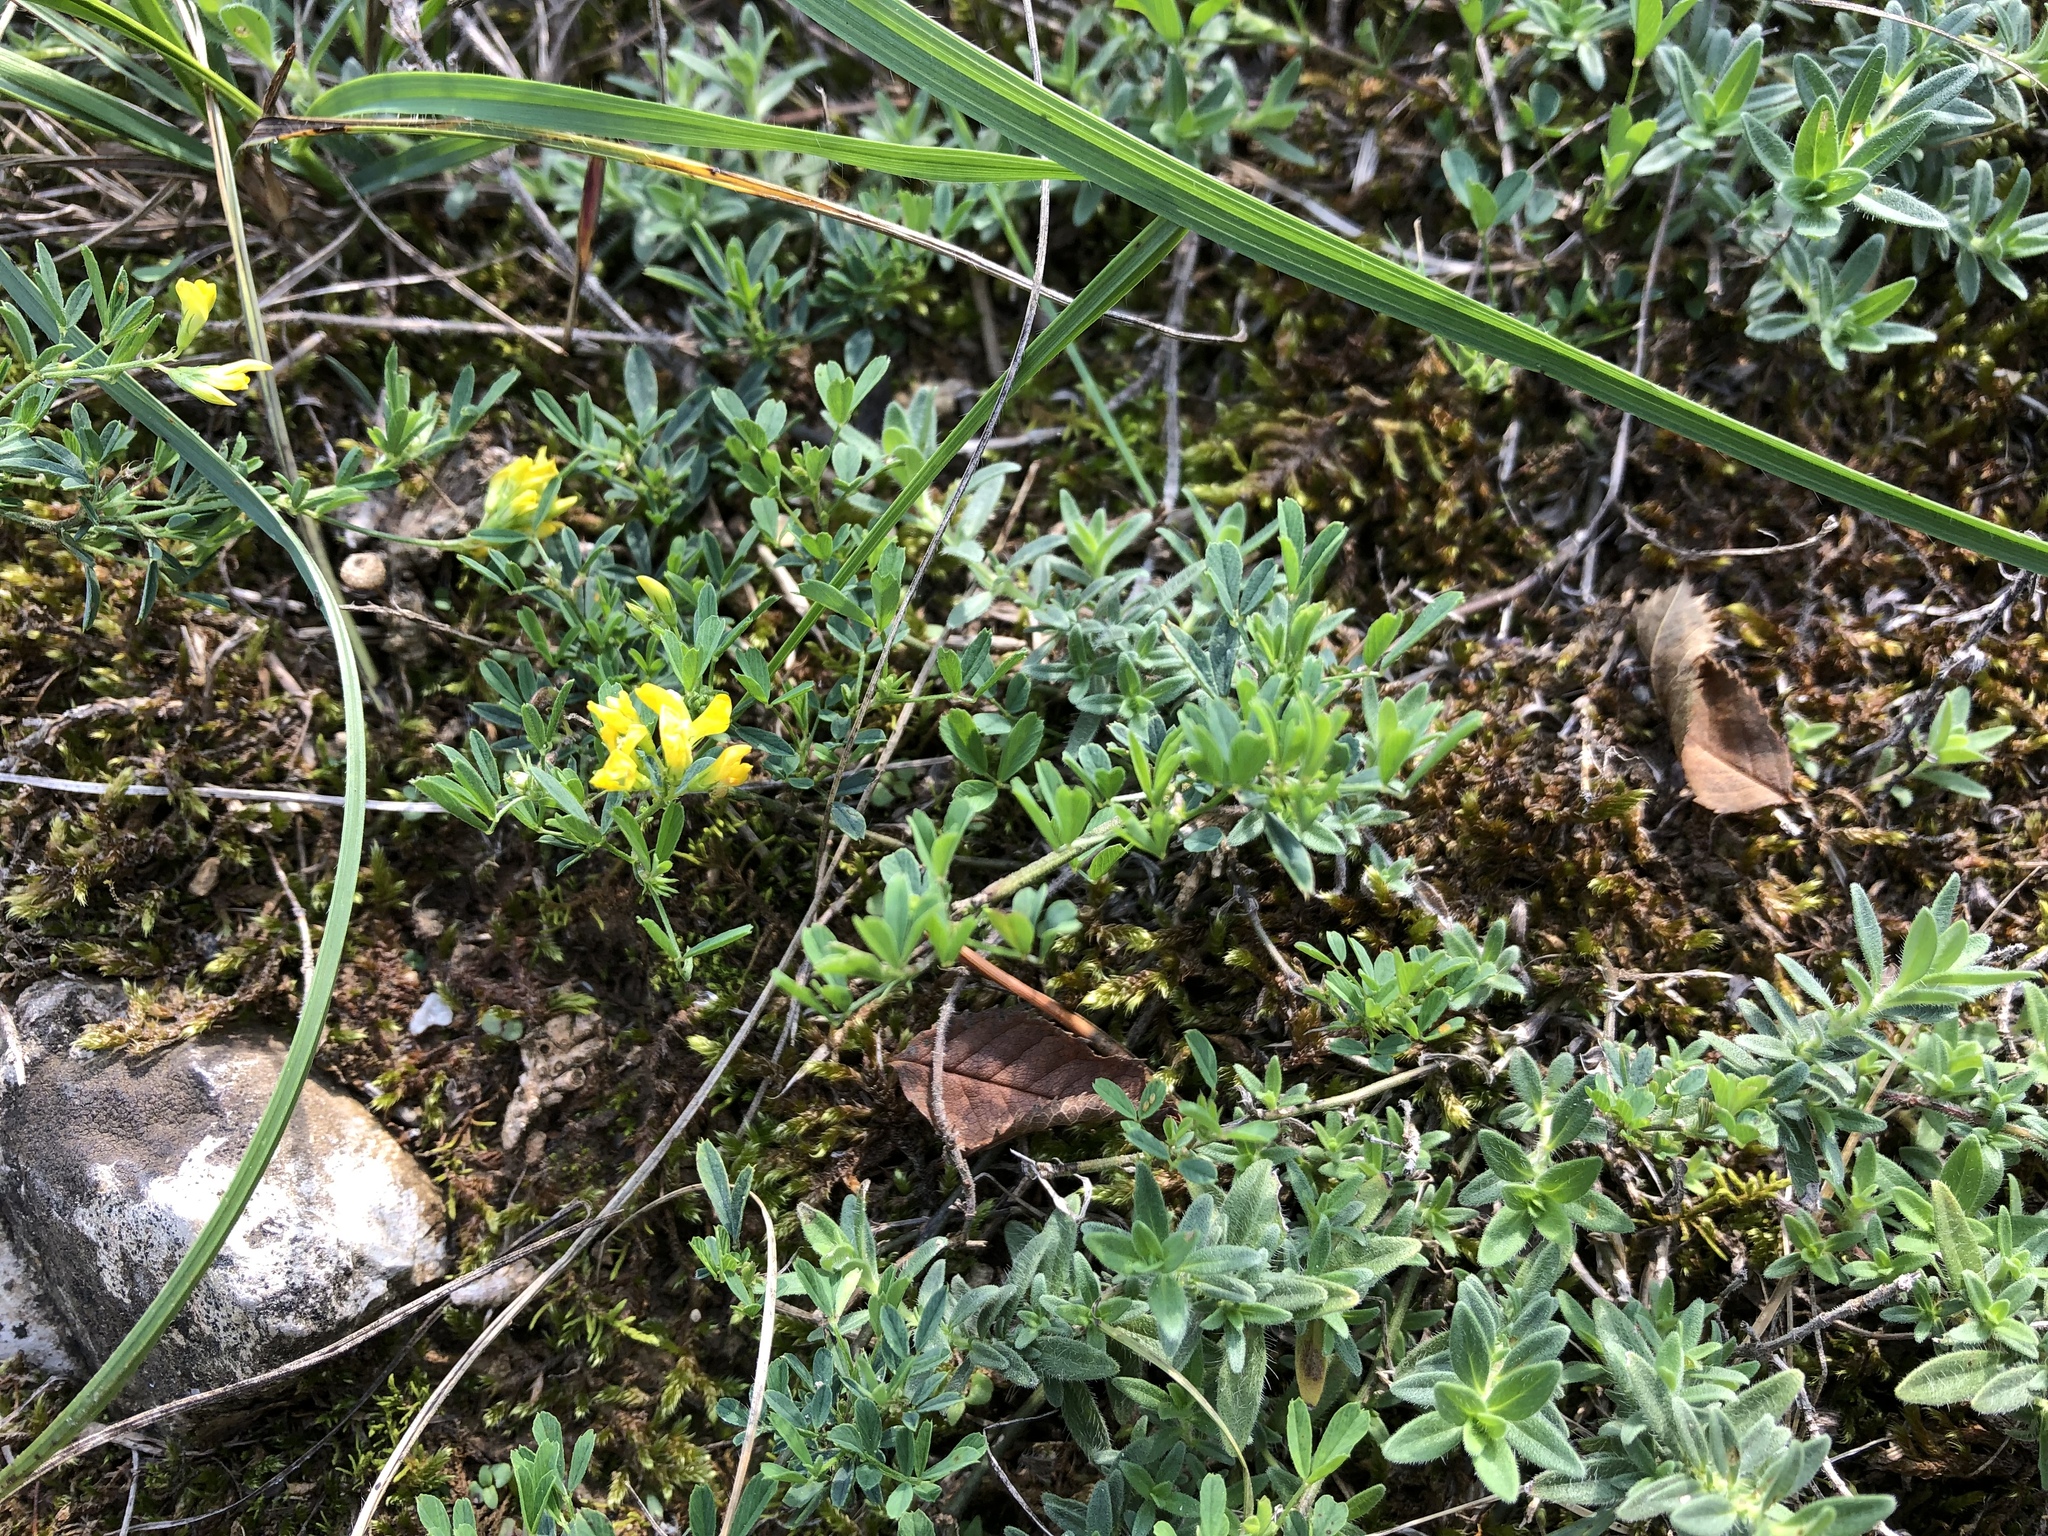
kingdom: Plantae
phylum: Tracheophyta
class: Magnoliopsida
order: Fabales
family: Fabaceae
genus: Medicago
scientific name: Medicago falcata
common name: Sickle medick
